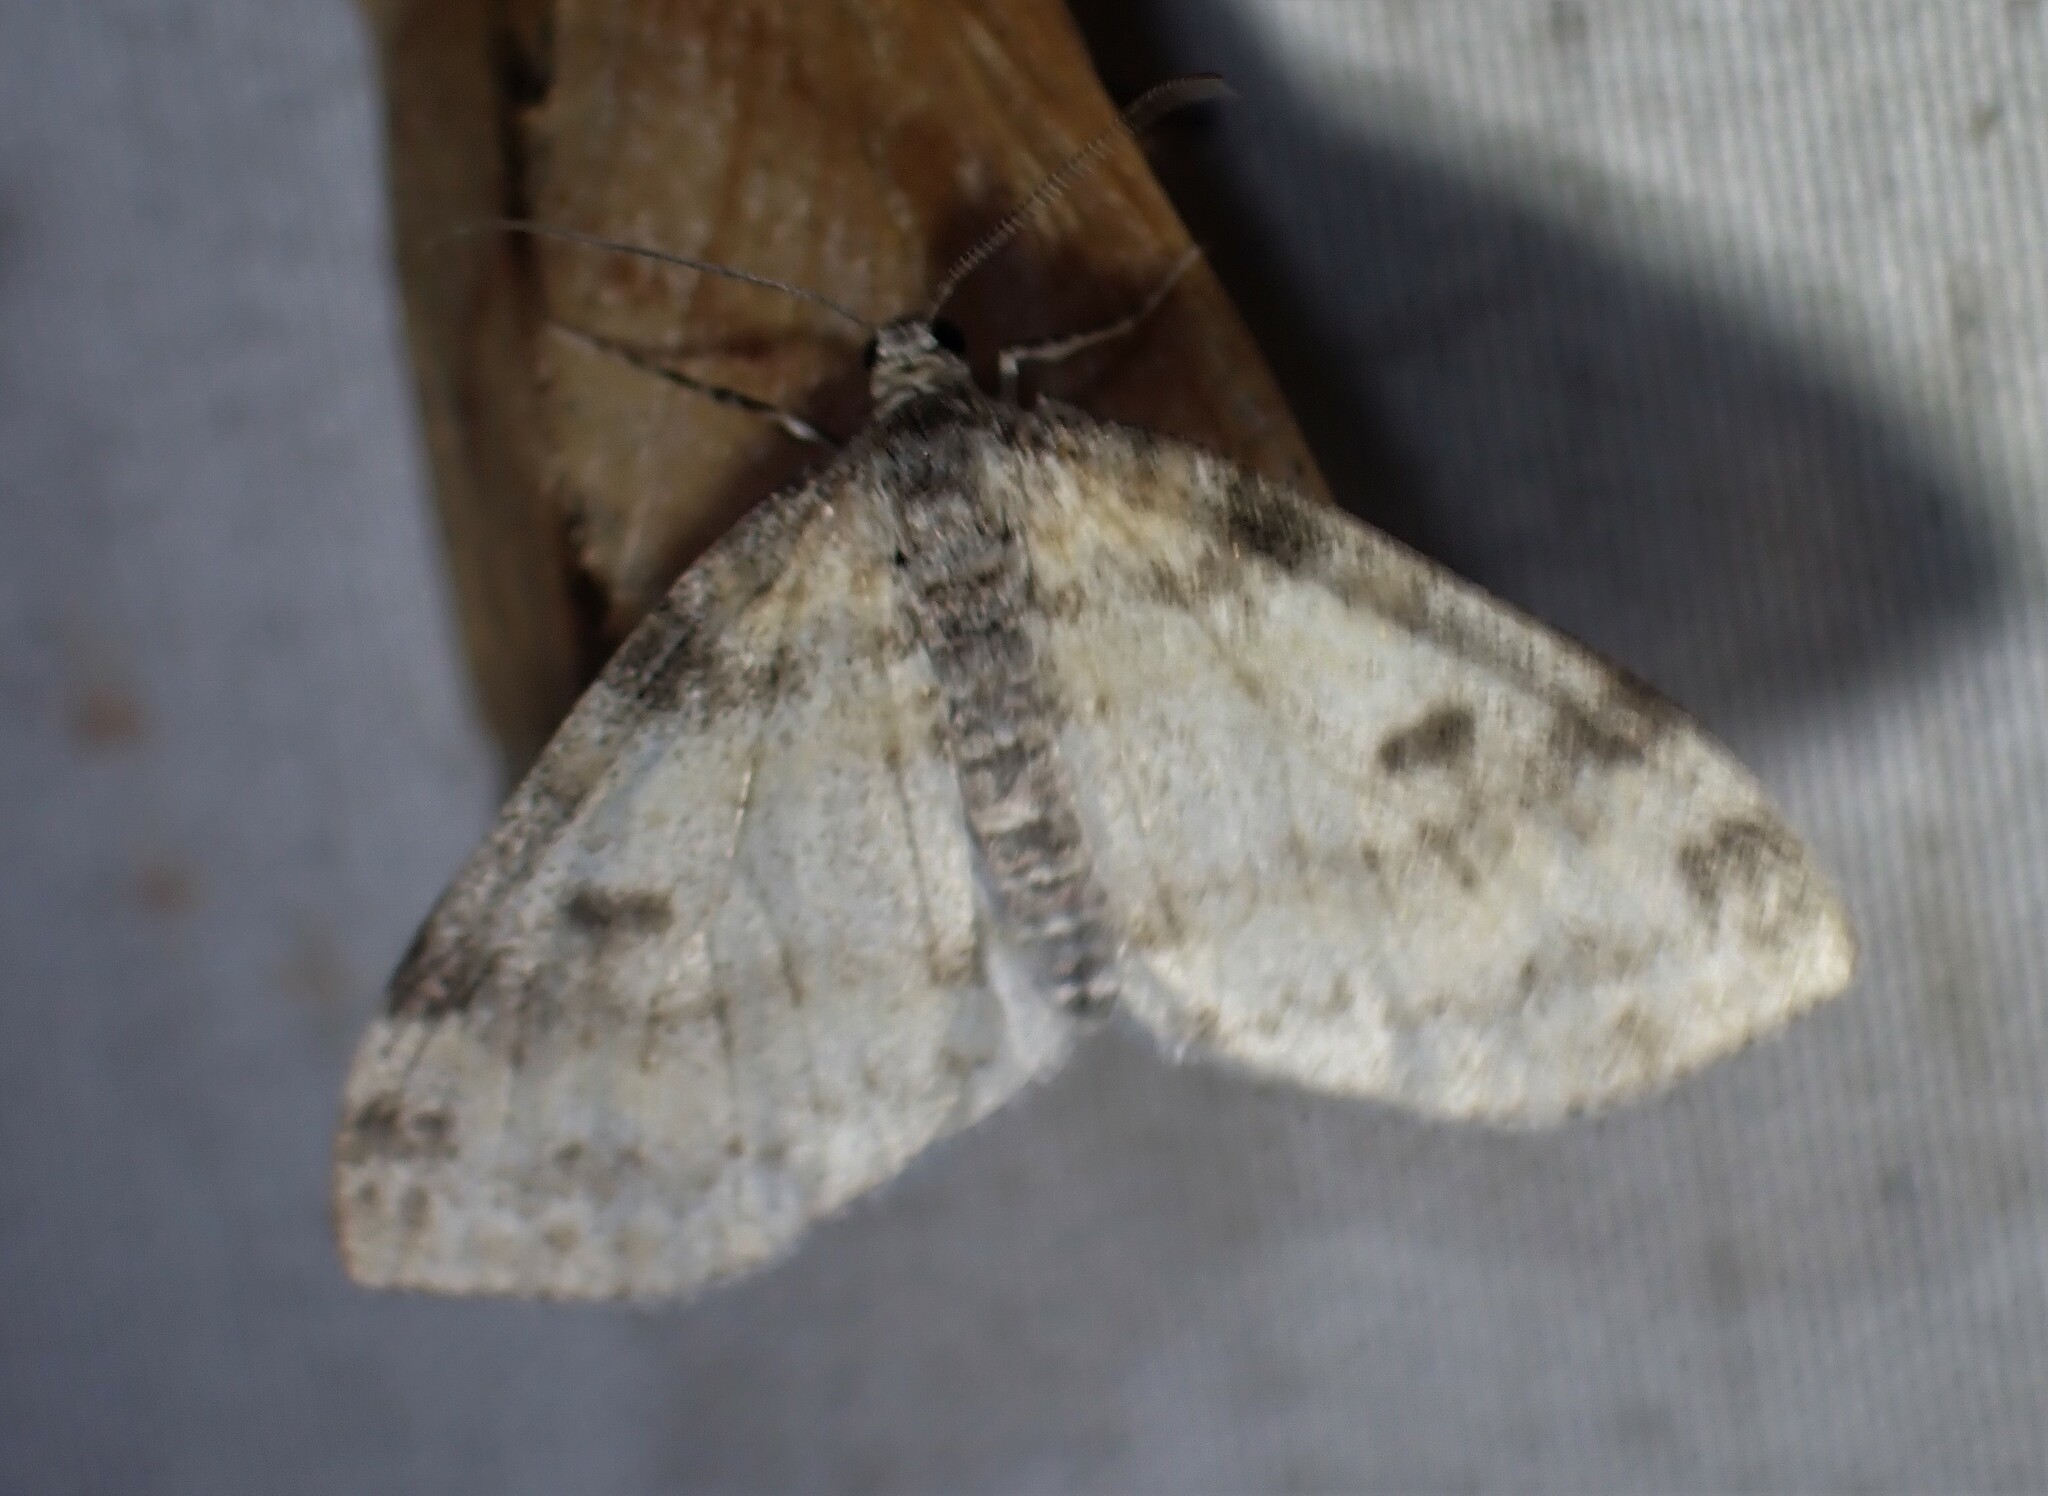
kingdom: Animalia
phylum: Arthropoda
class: Insecta
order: Lepidoptera
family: Geometridae
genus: Lobophora
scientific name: Lobophora nivigerata
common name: Powdered bigwing
